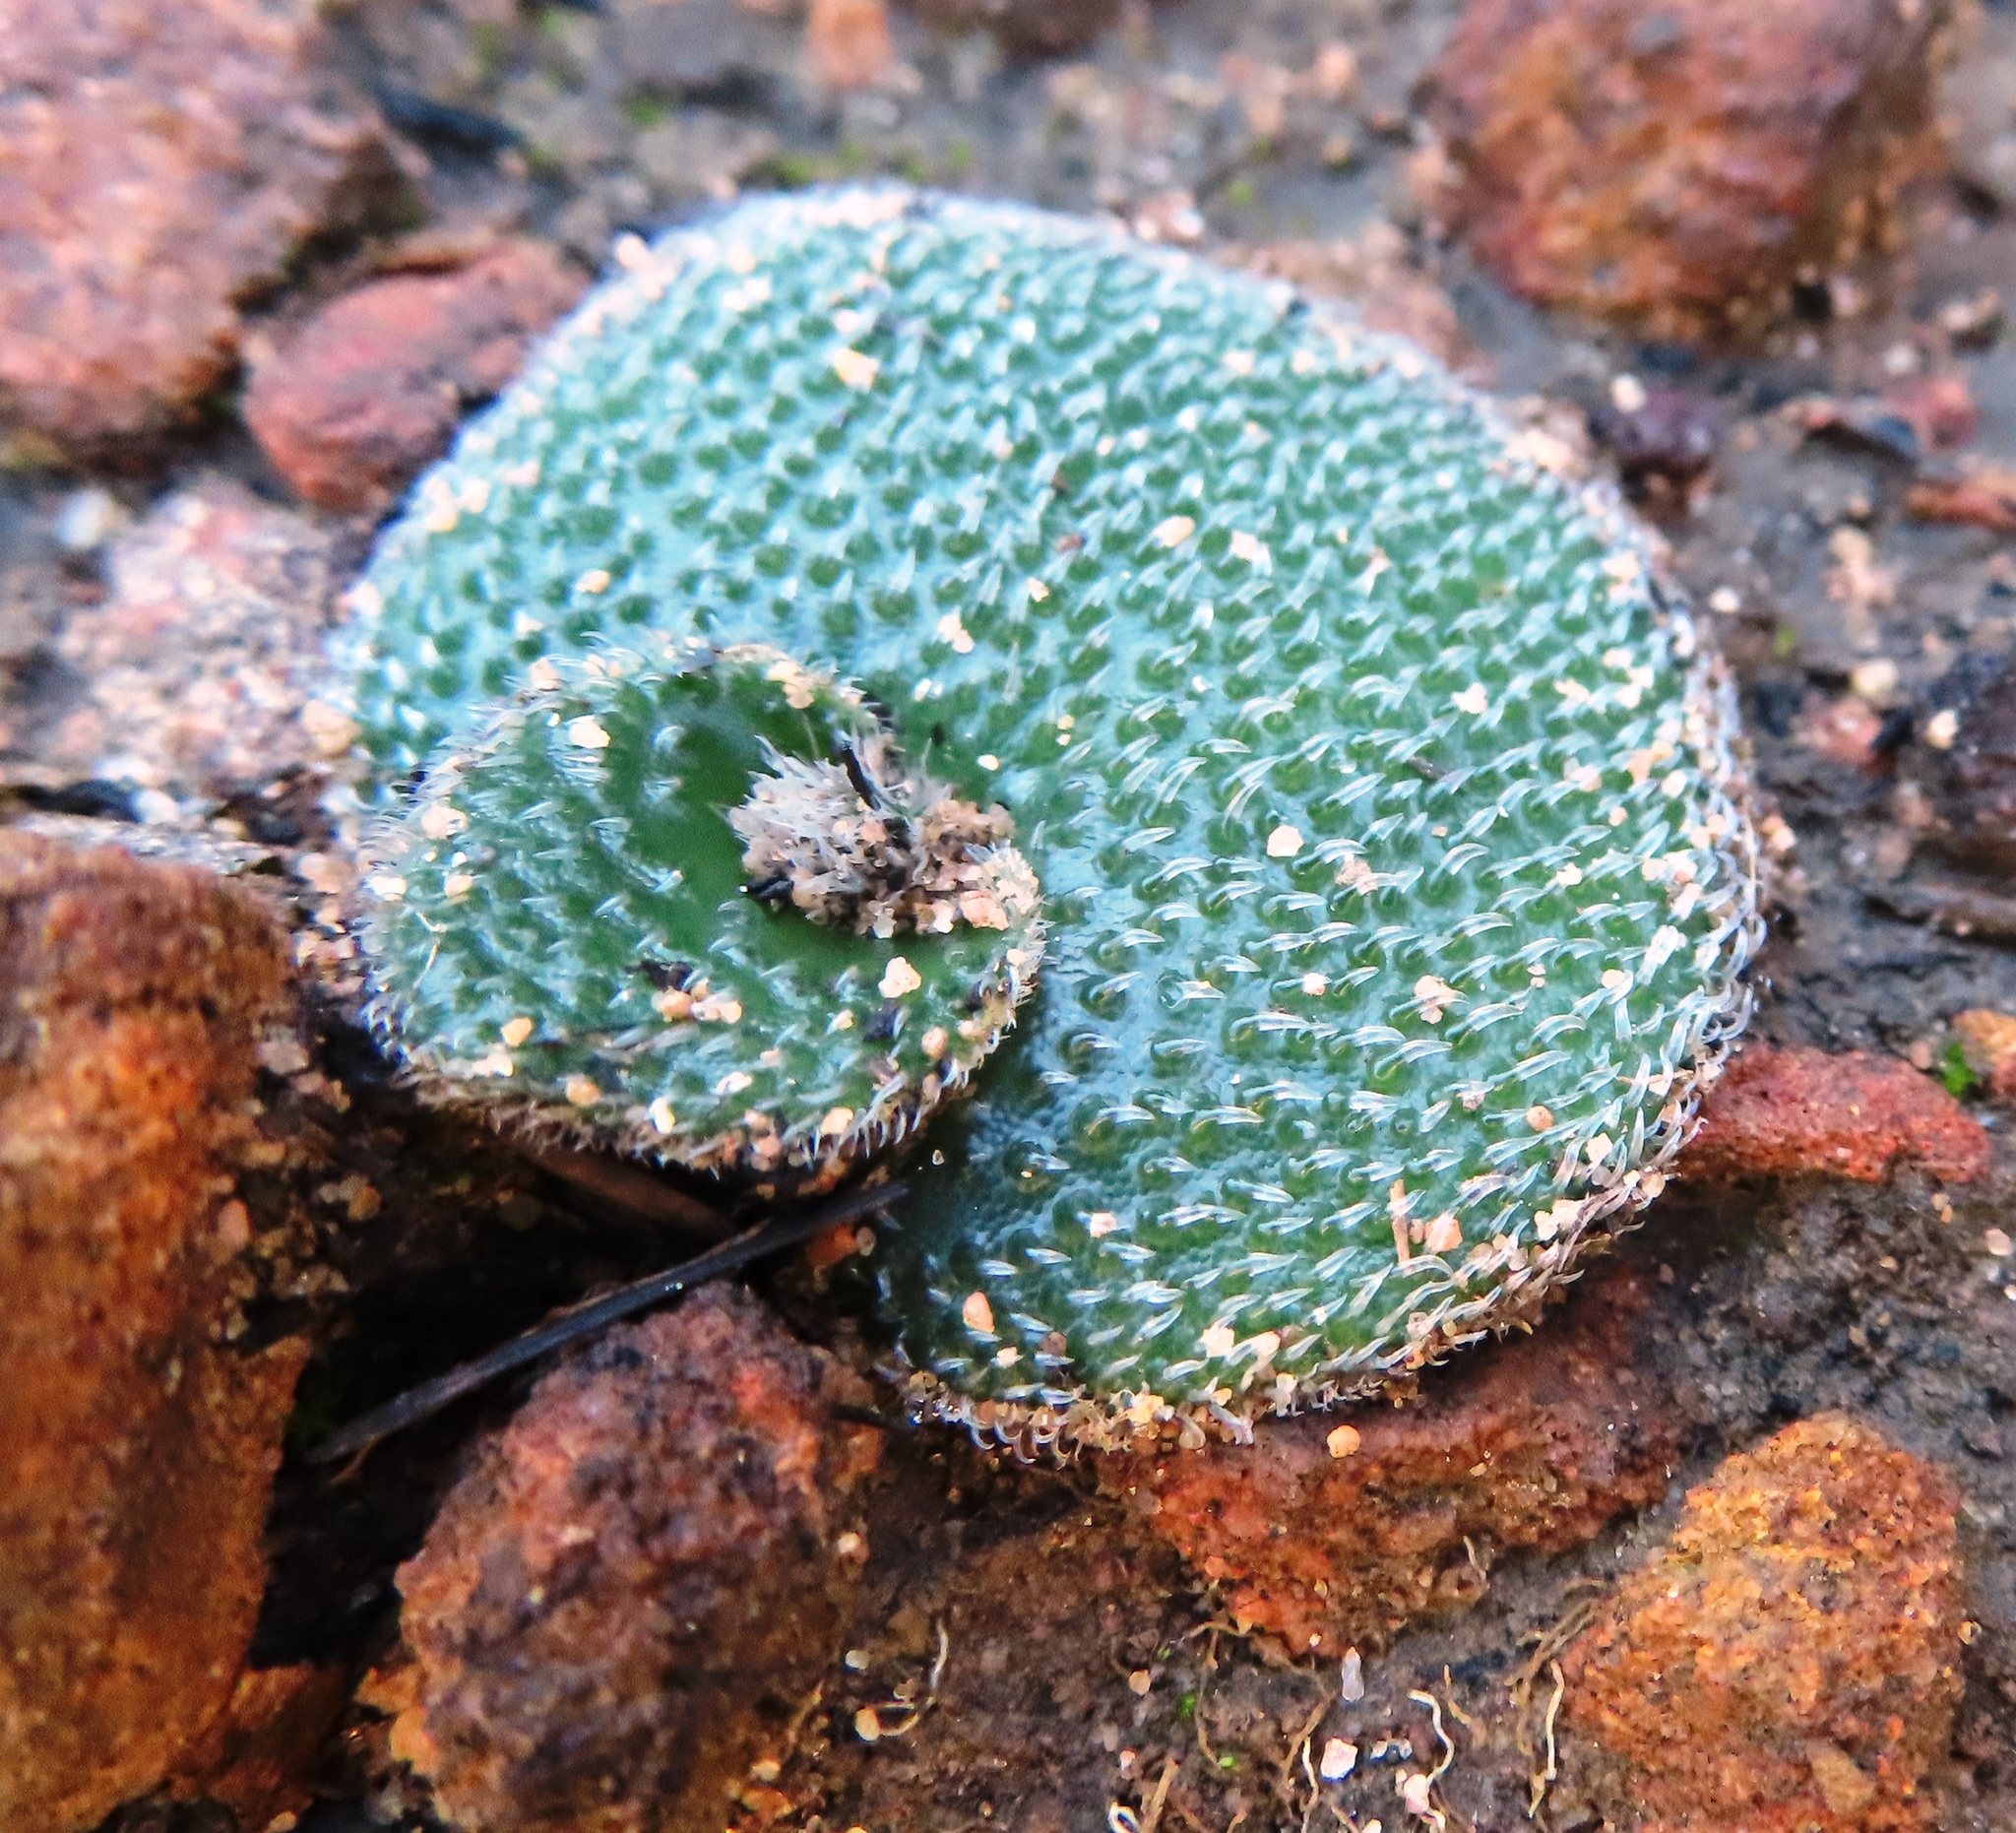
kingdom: Plantae
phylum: Tracheophyta
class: Liliopsida
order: Asparagales
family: Orchidaceae
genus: Holothrix
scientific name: Holothrix cernua
